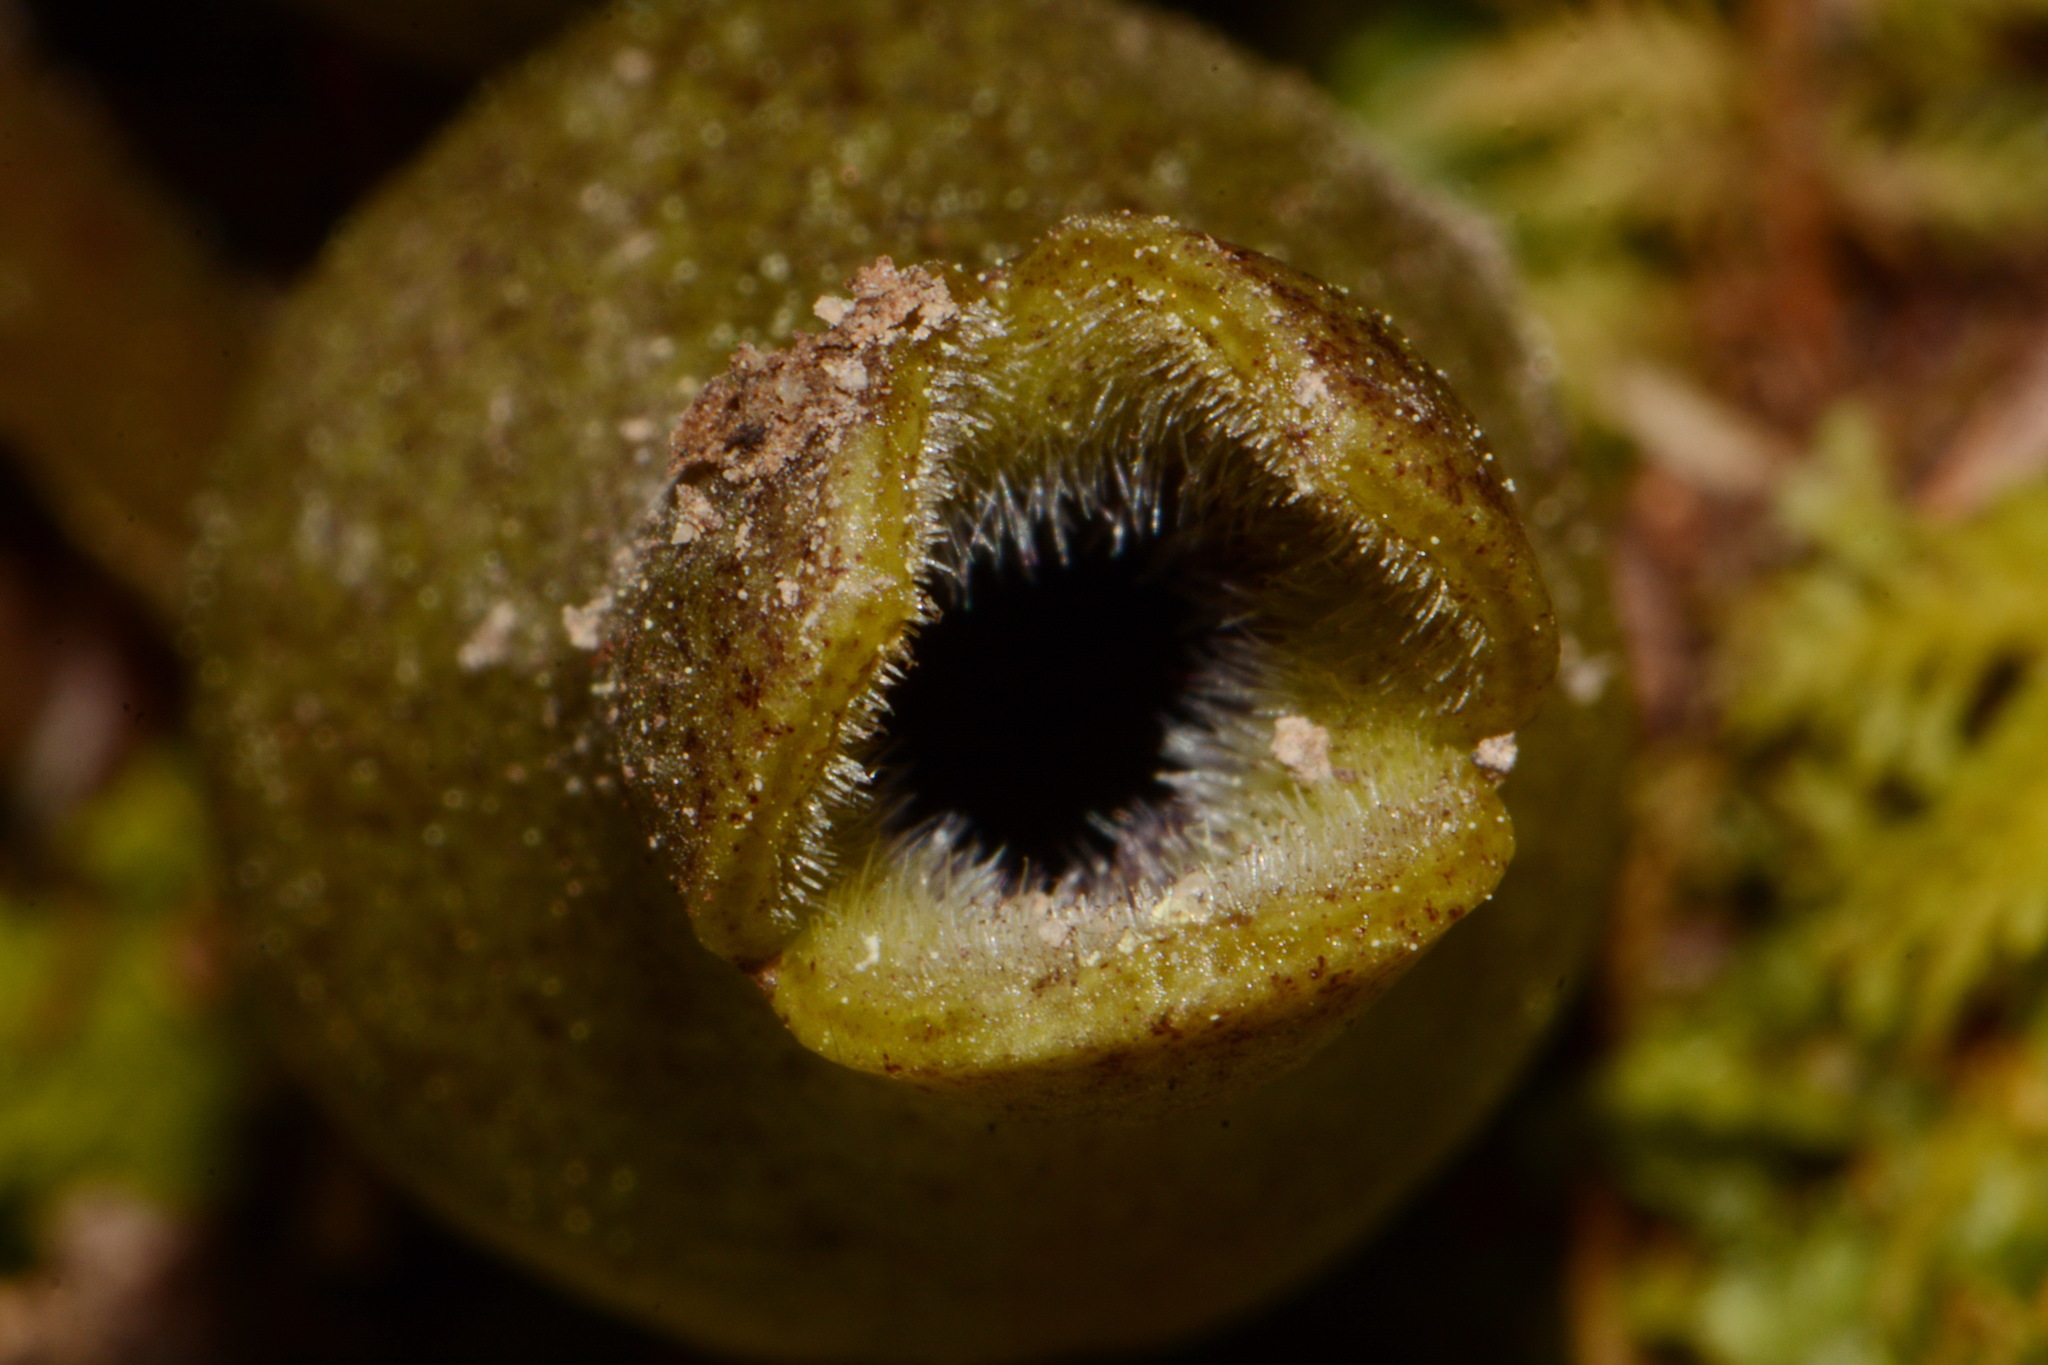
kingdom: Plantae
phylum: Tracheophyta
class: Magnoliopsida
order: Piperales
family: Aristolochiaceae
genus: Hexastylis
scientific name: Hexastylis arifolia
